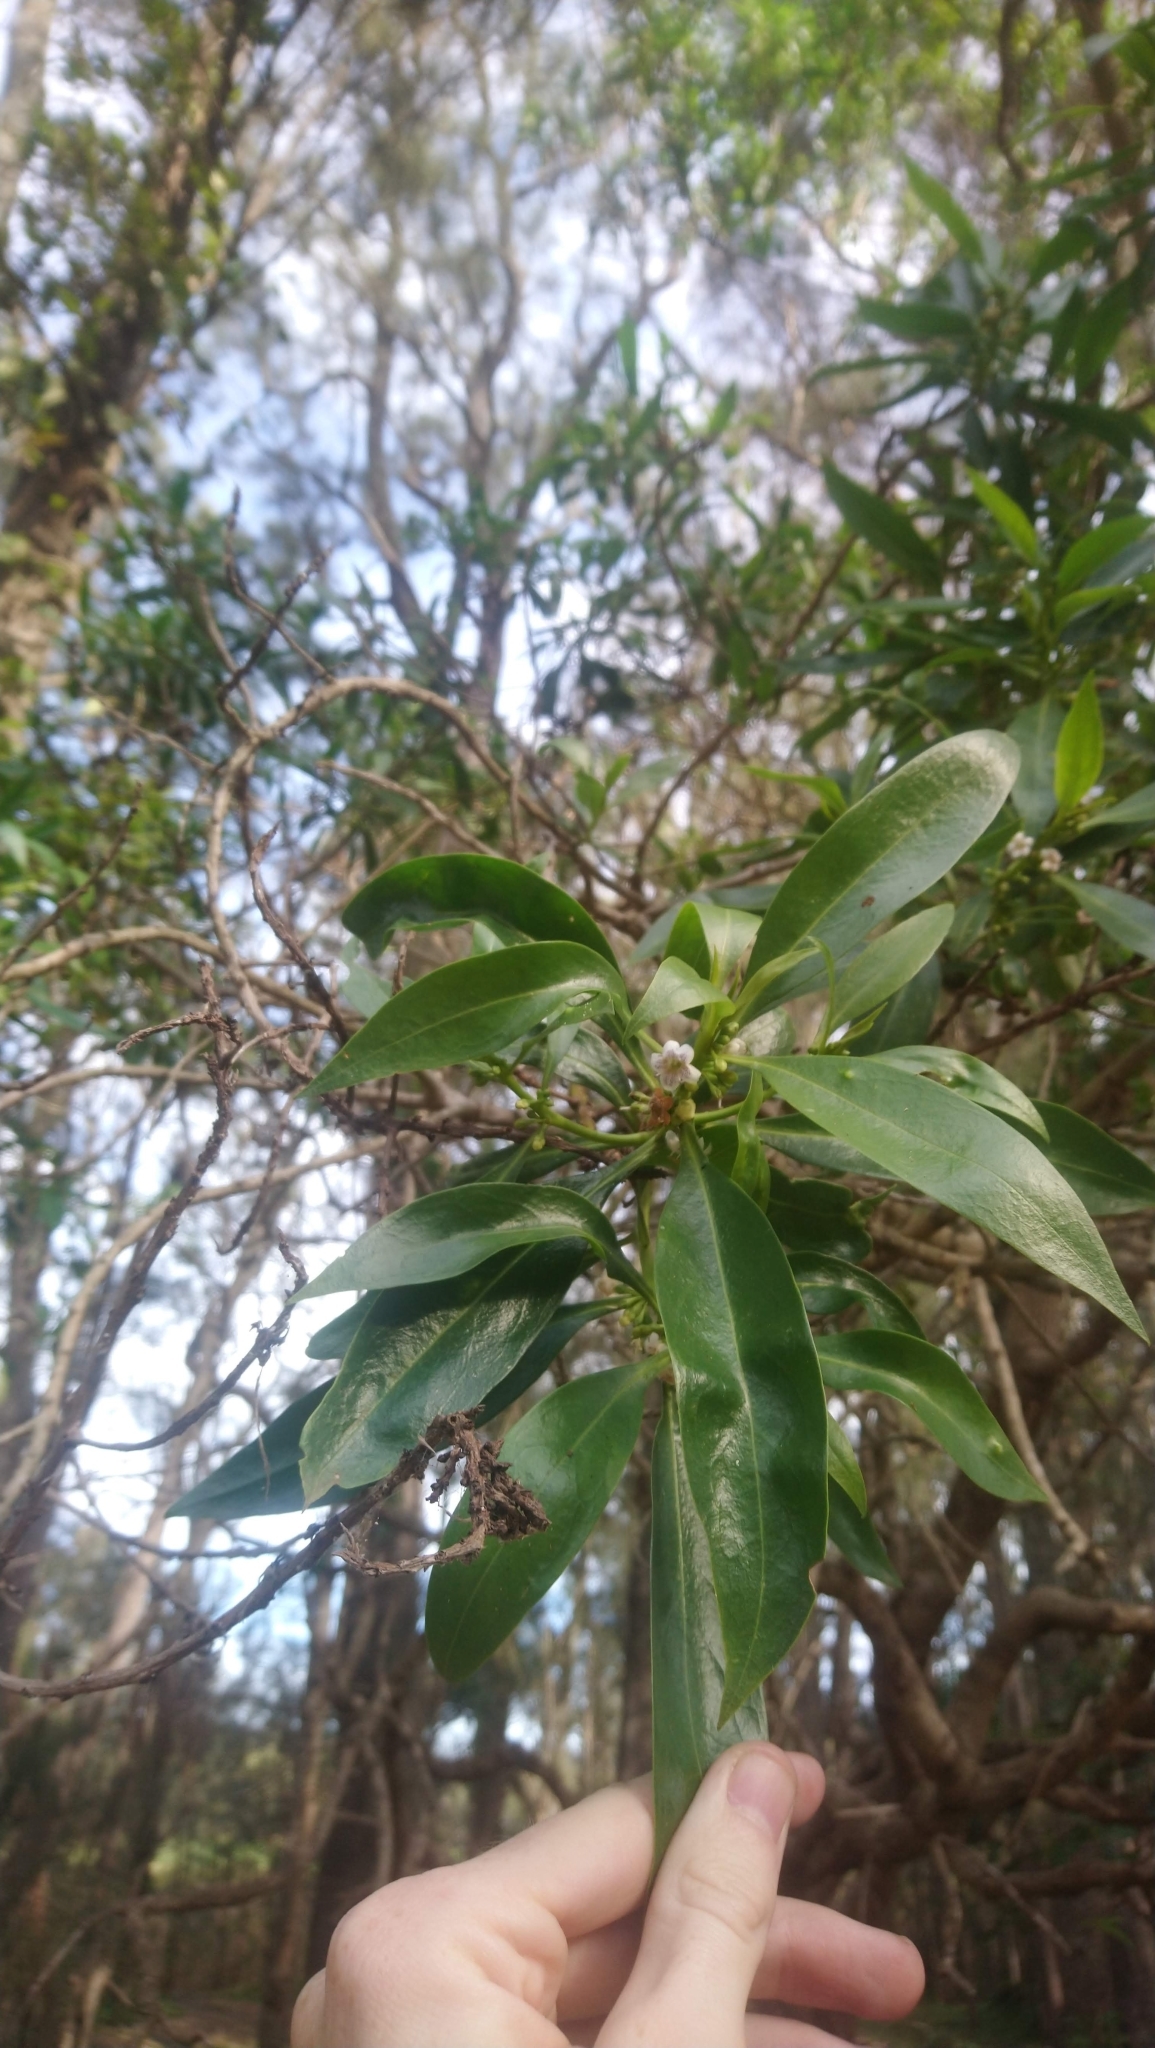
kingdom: Plantae
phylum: Tracheophyta
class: Magnoliopsida
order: Lamiales
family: Scrophulariaceae
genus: Myoporum
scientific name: Myoporum acuminatum
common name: Pointed boobialla
